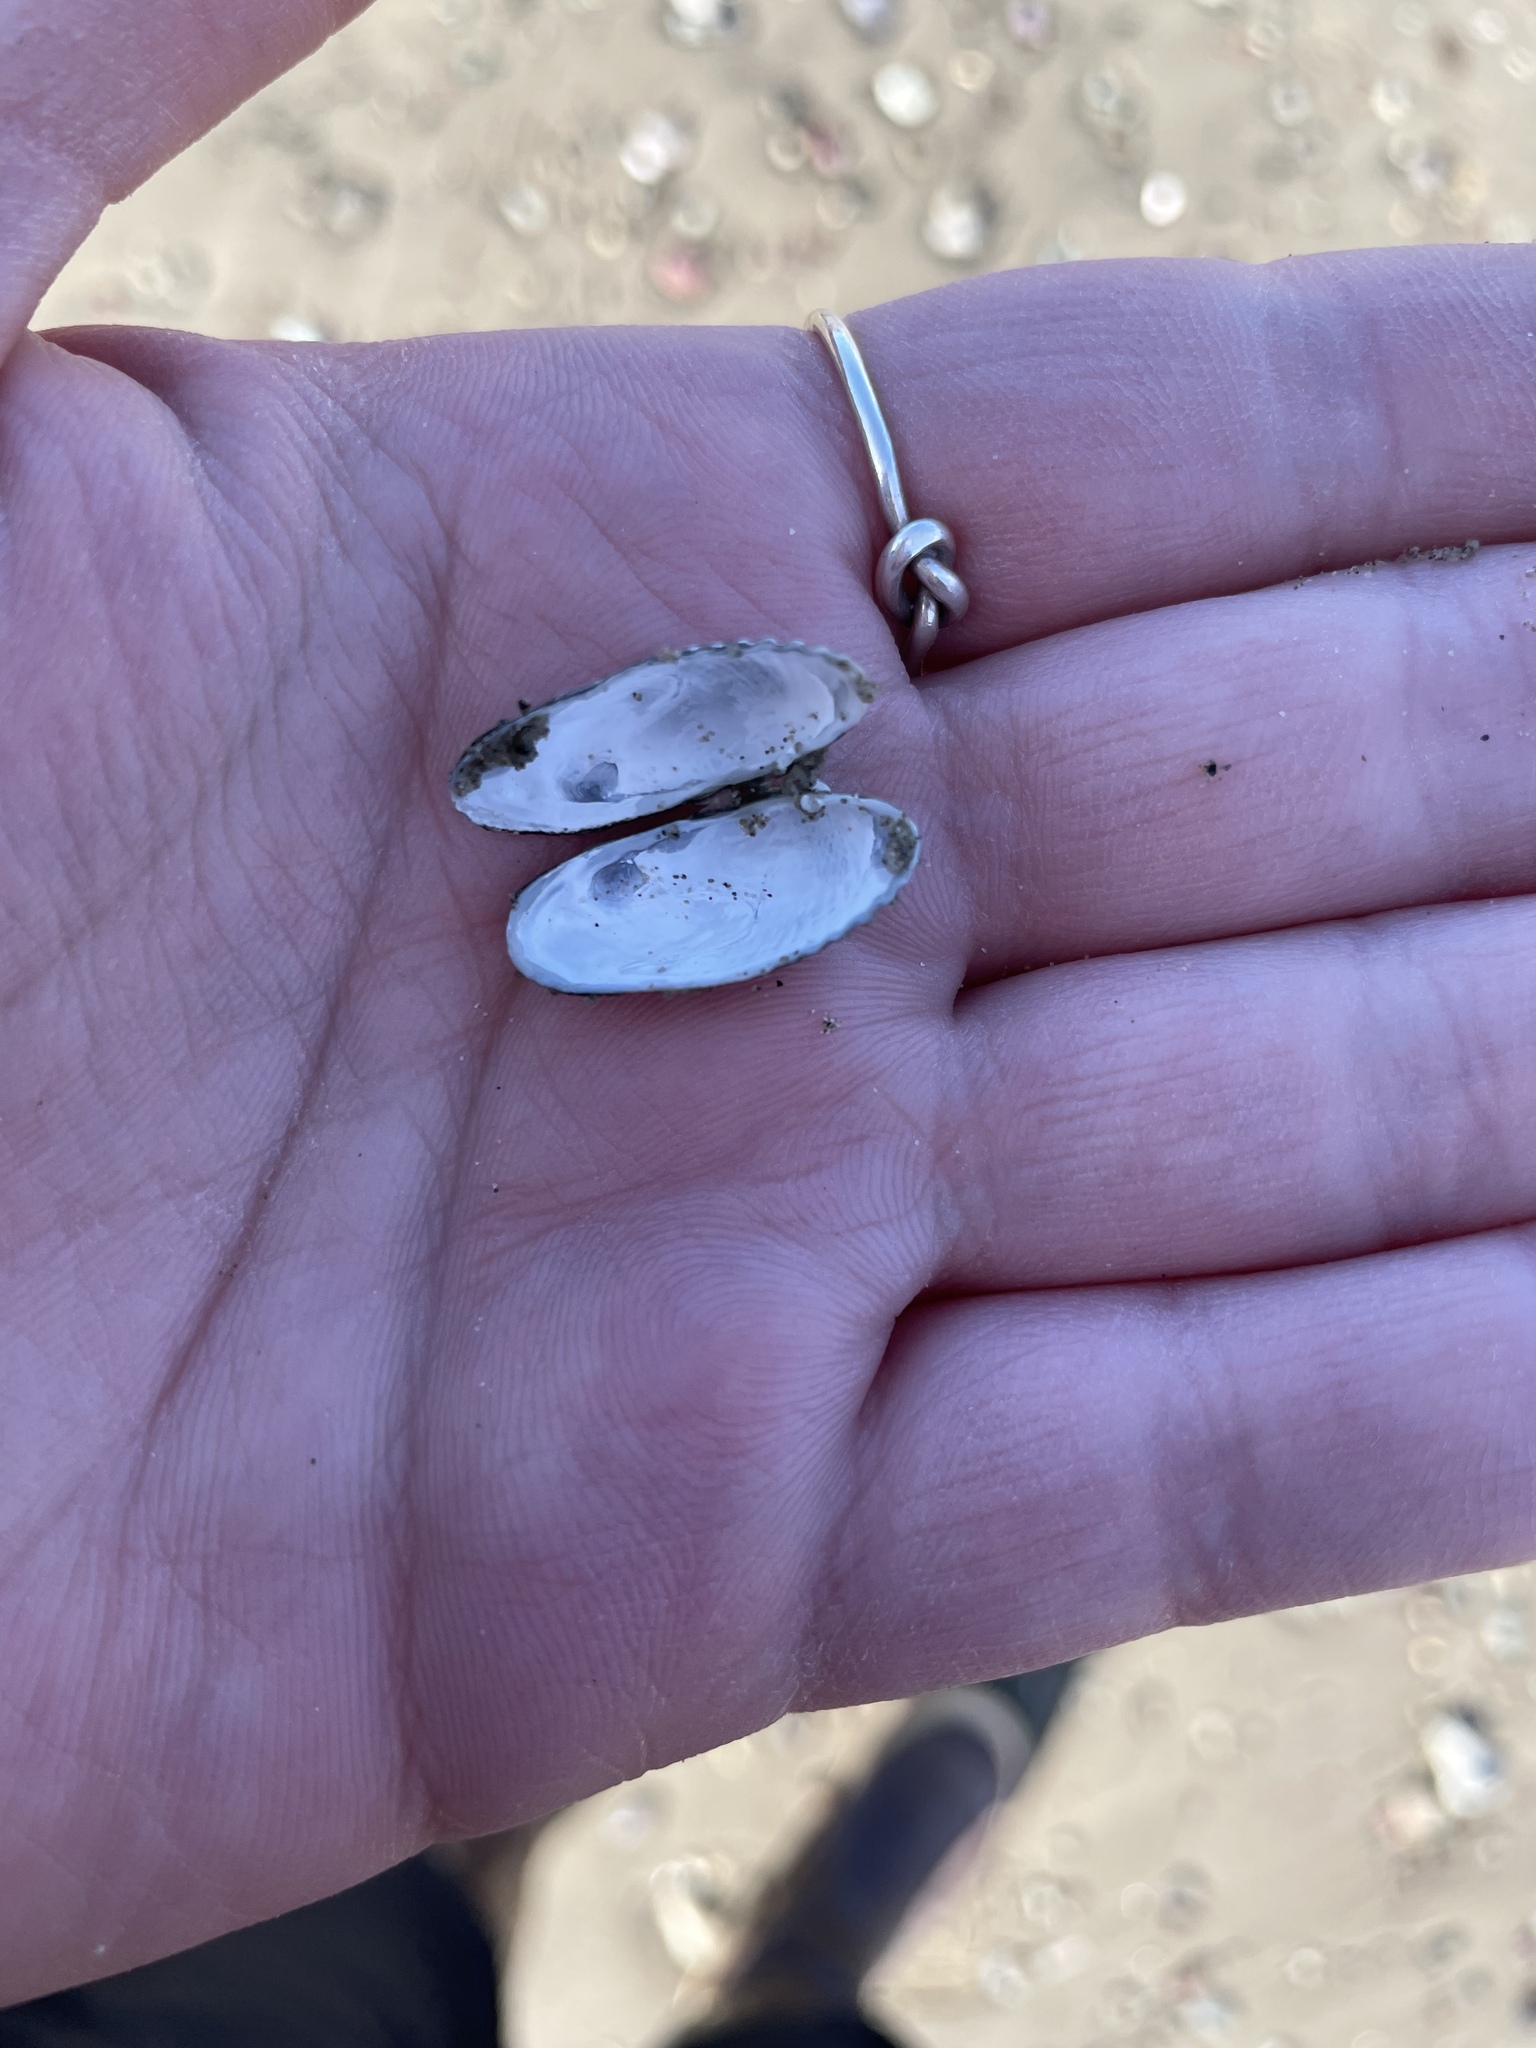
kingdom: Animalia
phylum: Mollusca
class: Bivalvia
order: Venerida
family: Veneridae
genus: Petricolaria
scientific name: Petricolaria pholadiformis
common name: American piddock
